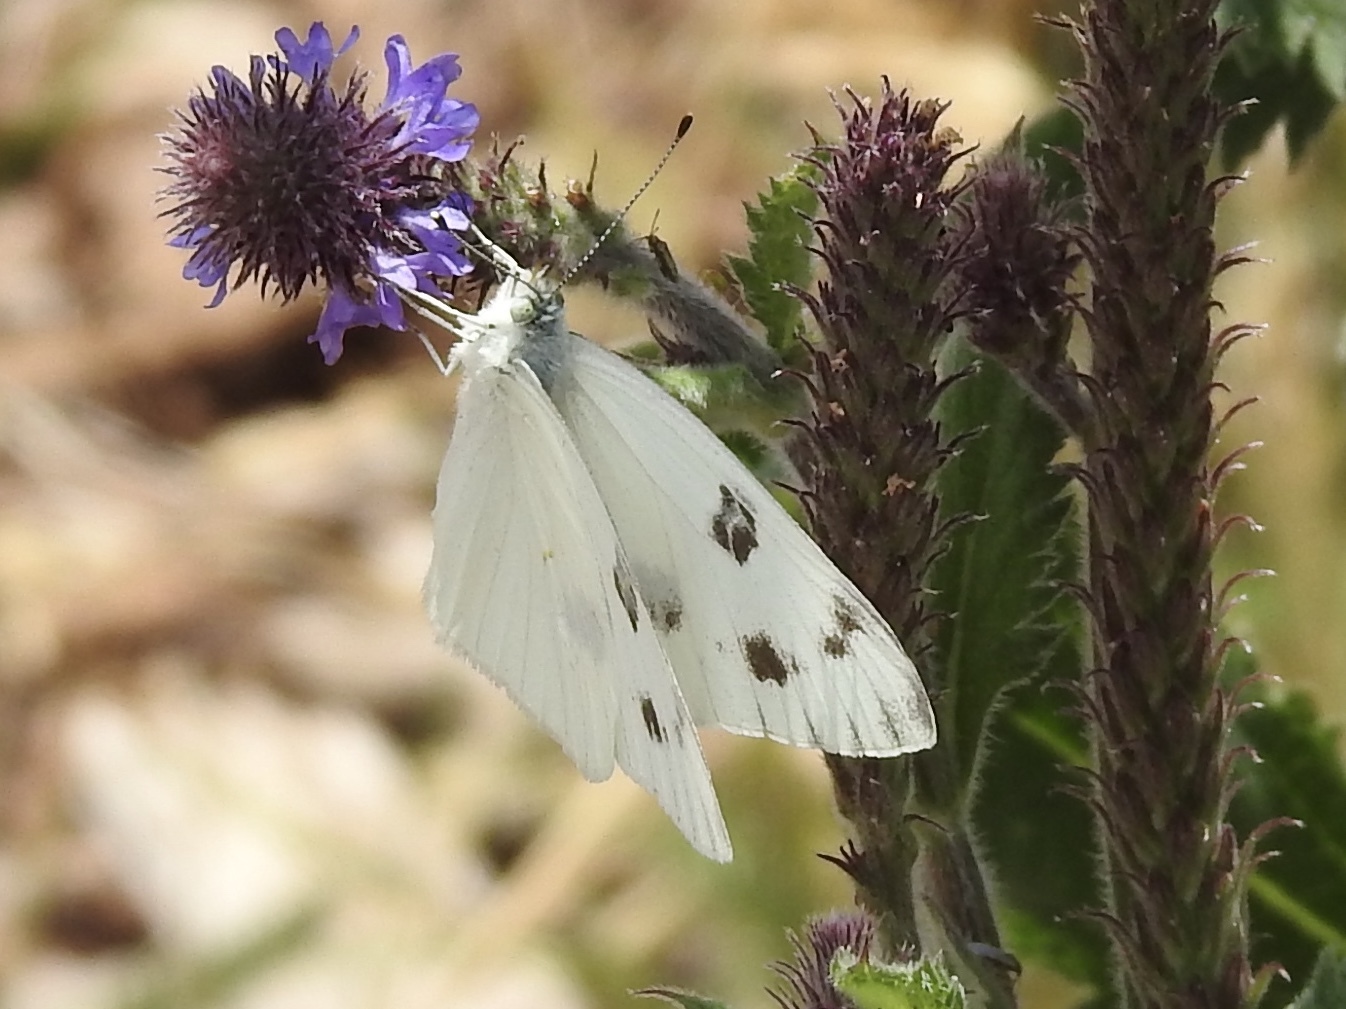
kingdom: Animalia
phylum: Arthropoda
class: Insecta
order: Lepidoptera
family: Pieridae
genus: Pontia
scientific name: Pontia protodice
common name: Checkered white
